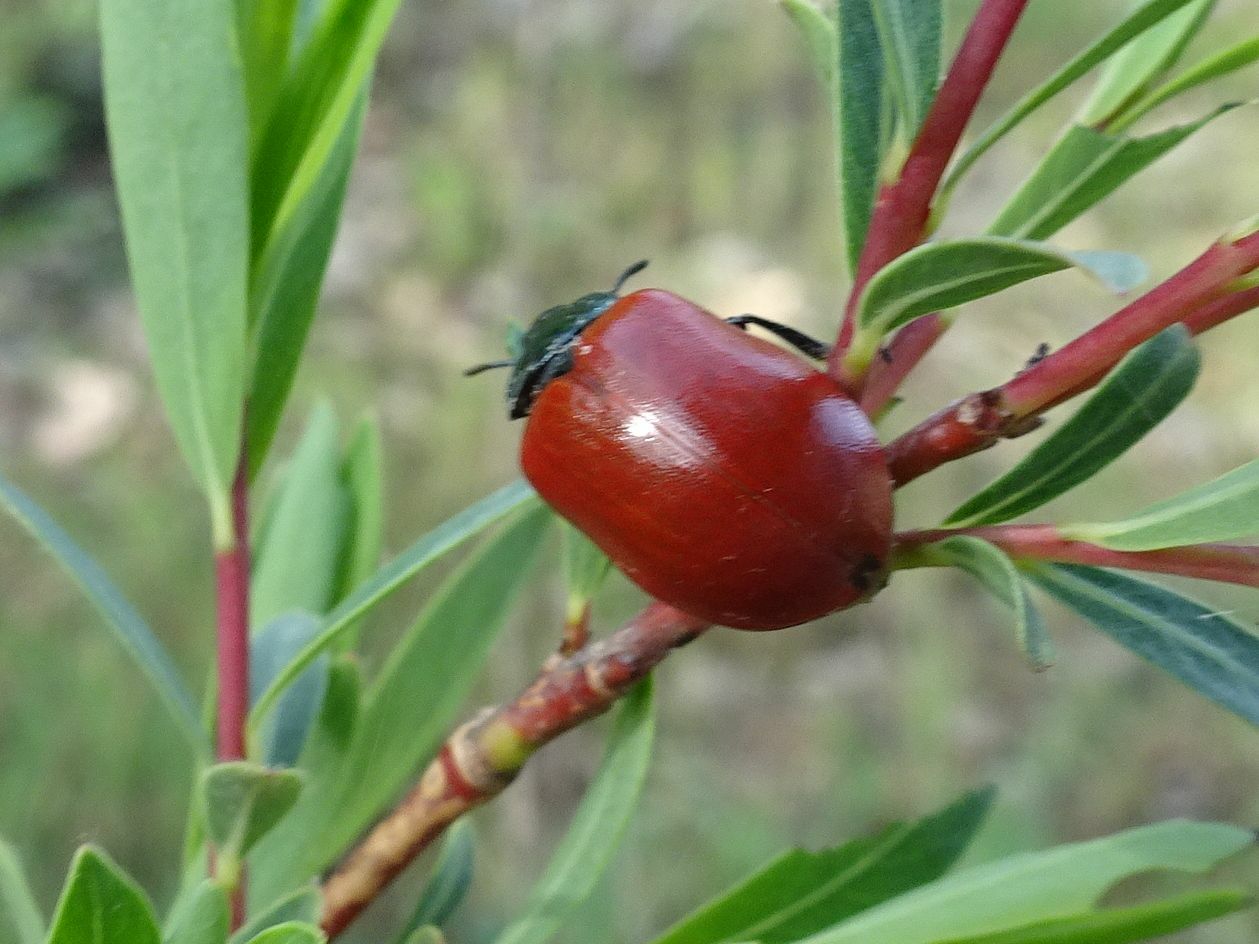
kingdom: Animalia
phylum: Arthropoda
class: Insecta
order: Coleoptera
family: Chrysomelidae
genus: Chrysomela
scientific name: Chrysomela populi
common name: Red poplar leaf beetle
